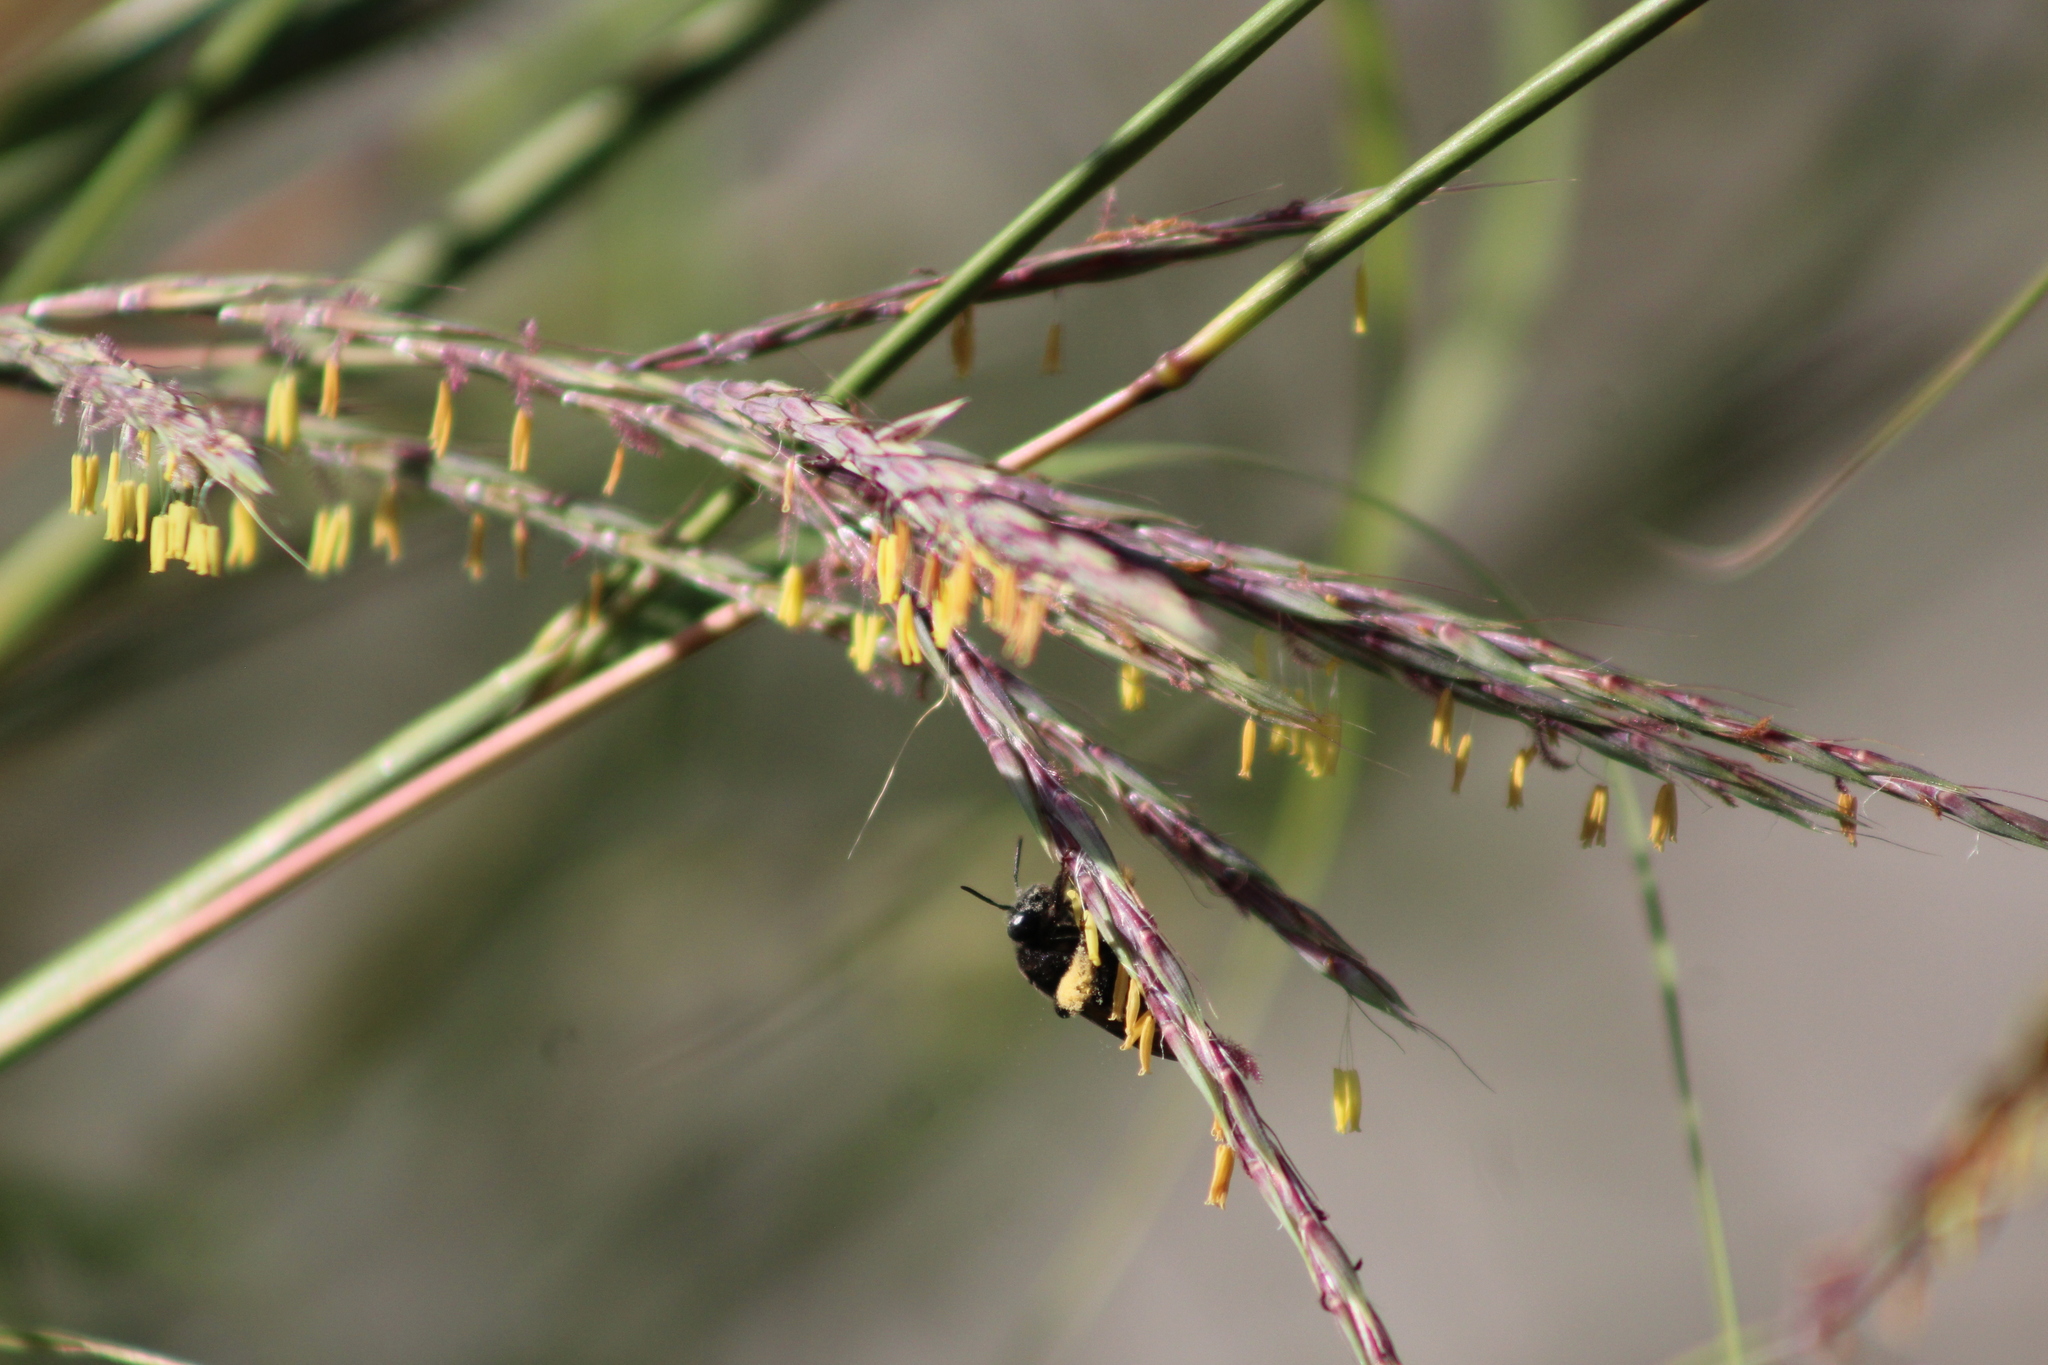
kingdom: Animalia
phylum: Arthropoda
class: Insecta
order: Hymenoptera
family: Apidae
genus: Melissodes
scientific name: Melissodes bimaculatus
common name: Two-spotted long-horned bee
